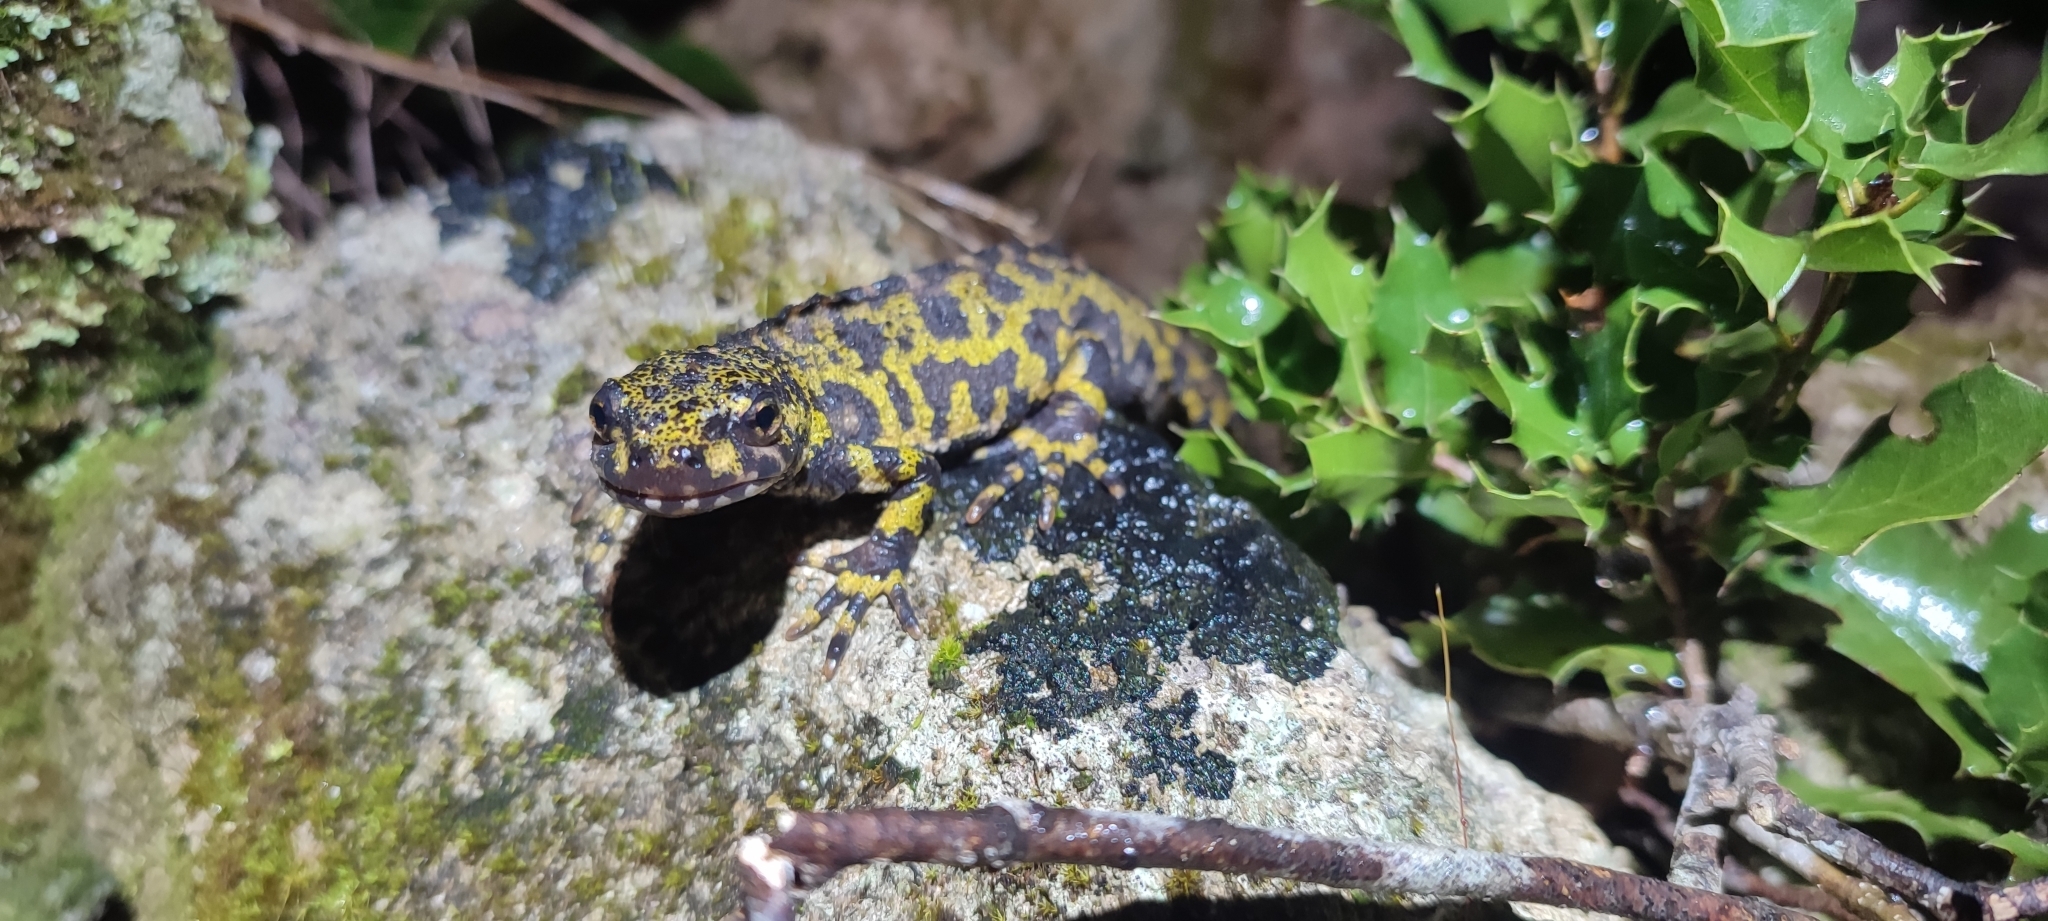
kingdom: Animalia
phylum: Chordata
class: Amphibia
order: Caudata
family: Salamandridae
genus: Triturus
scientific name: Triturus marmoratus
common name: Marbled newt
